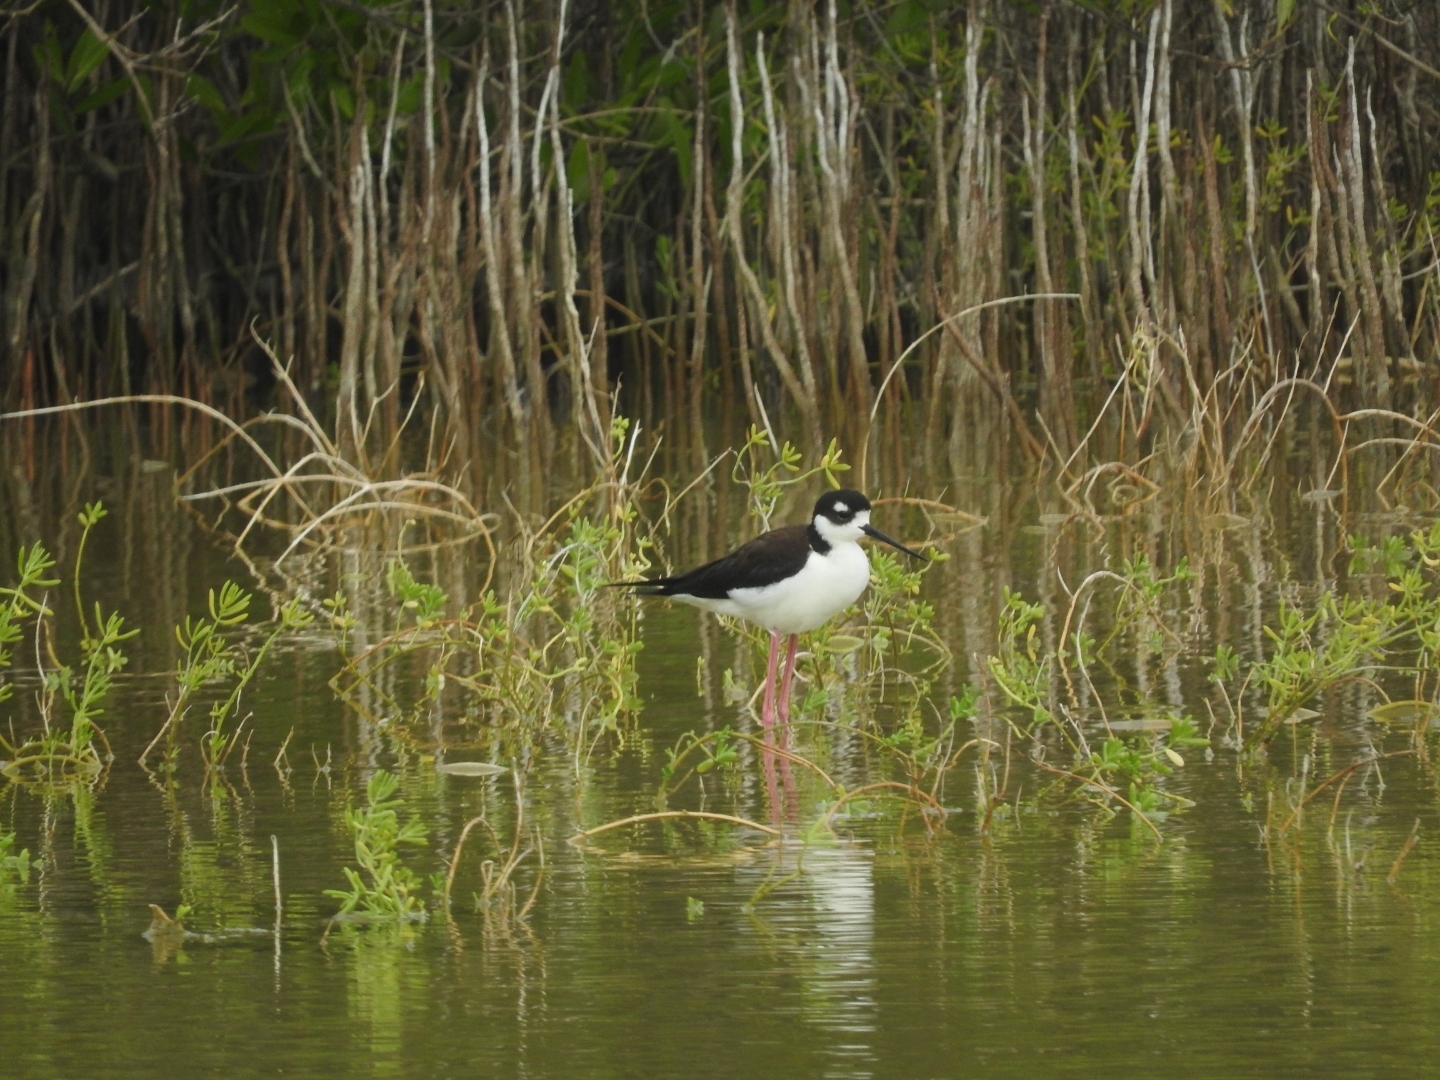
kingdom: Animalia
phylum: Chordata
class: Aves
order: Charadriiformes
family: Recurvirostridae
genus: Himantopus
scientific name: Himantopus mexicanus
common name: Black-necked stilt
